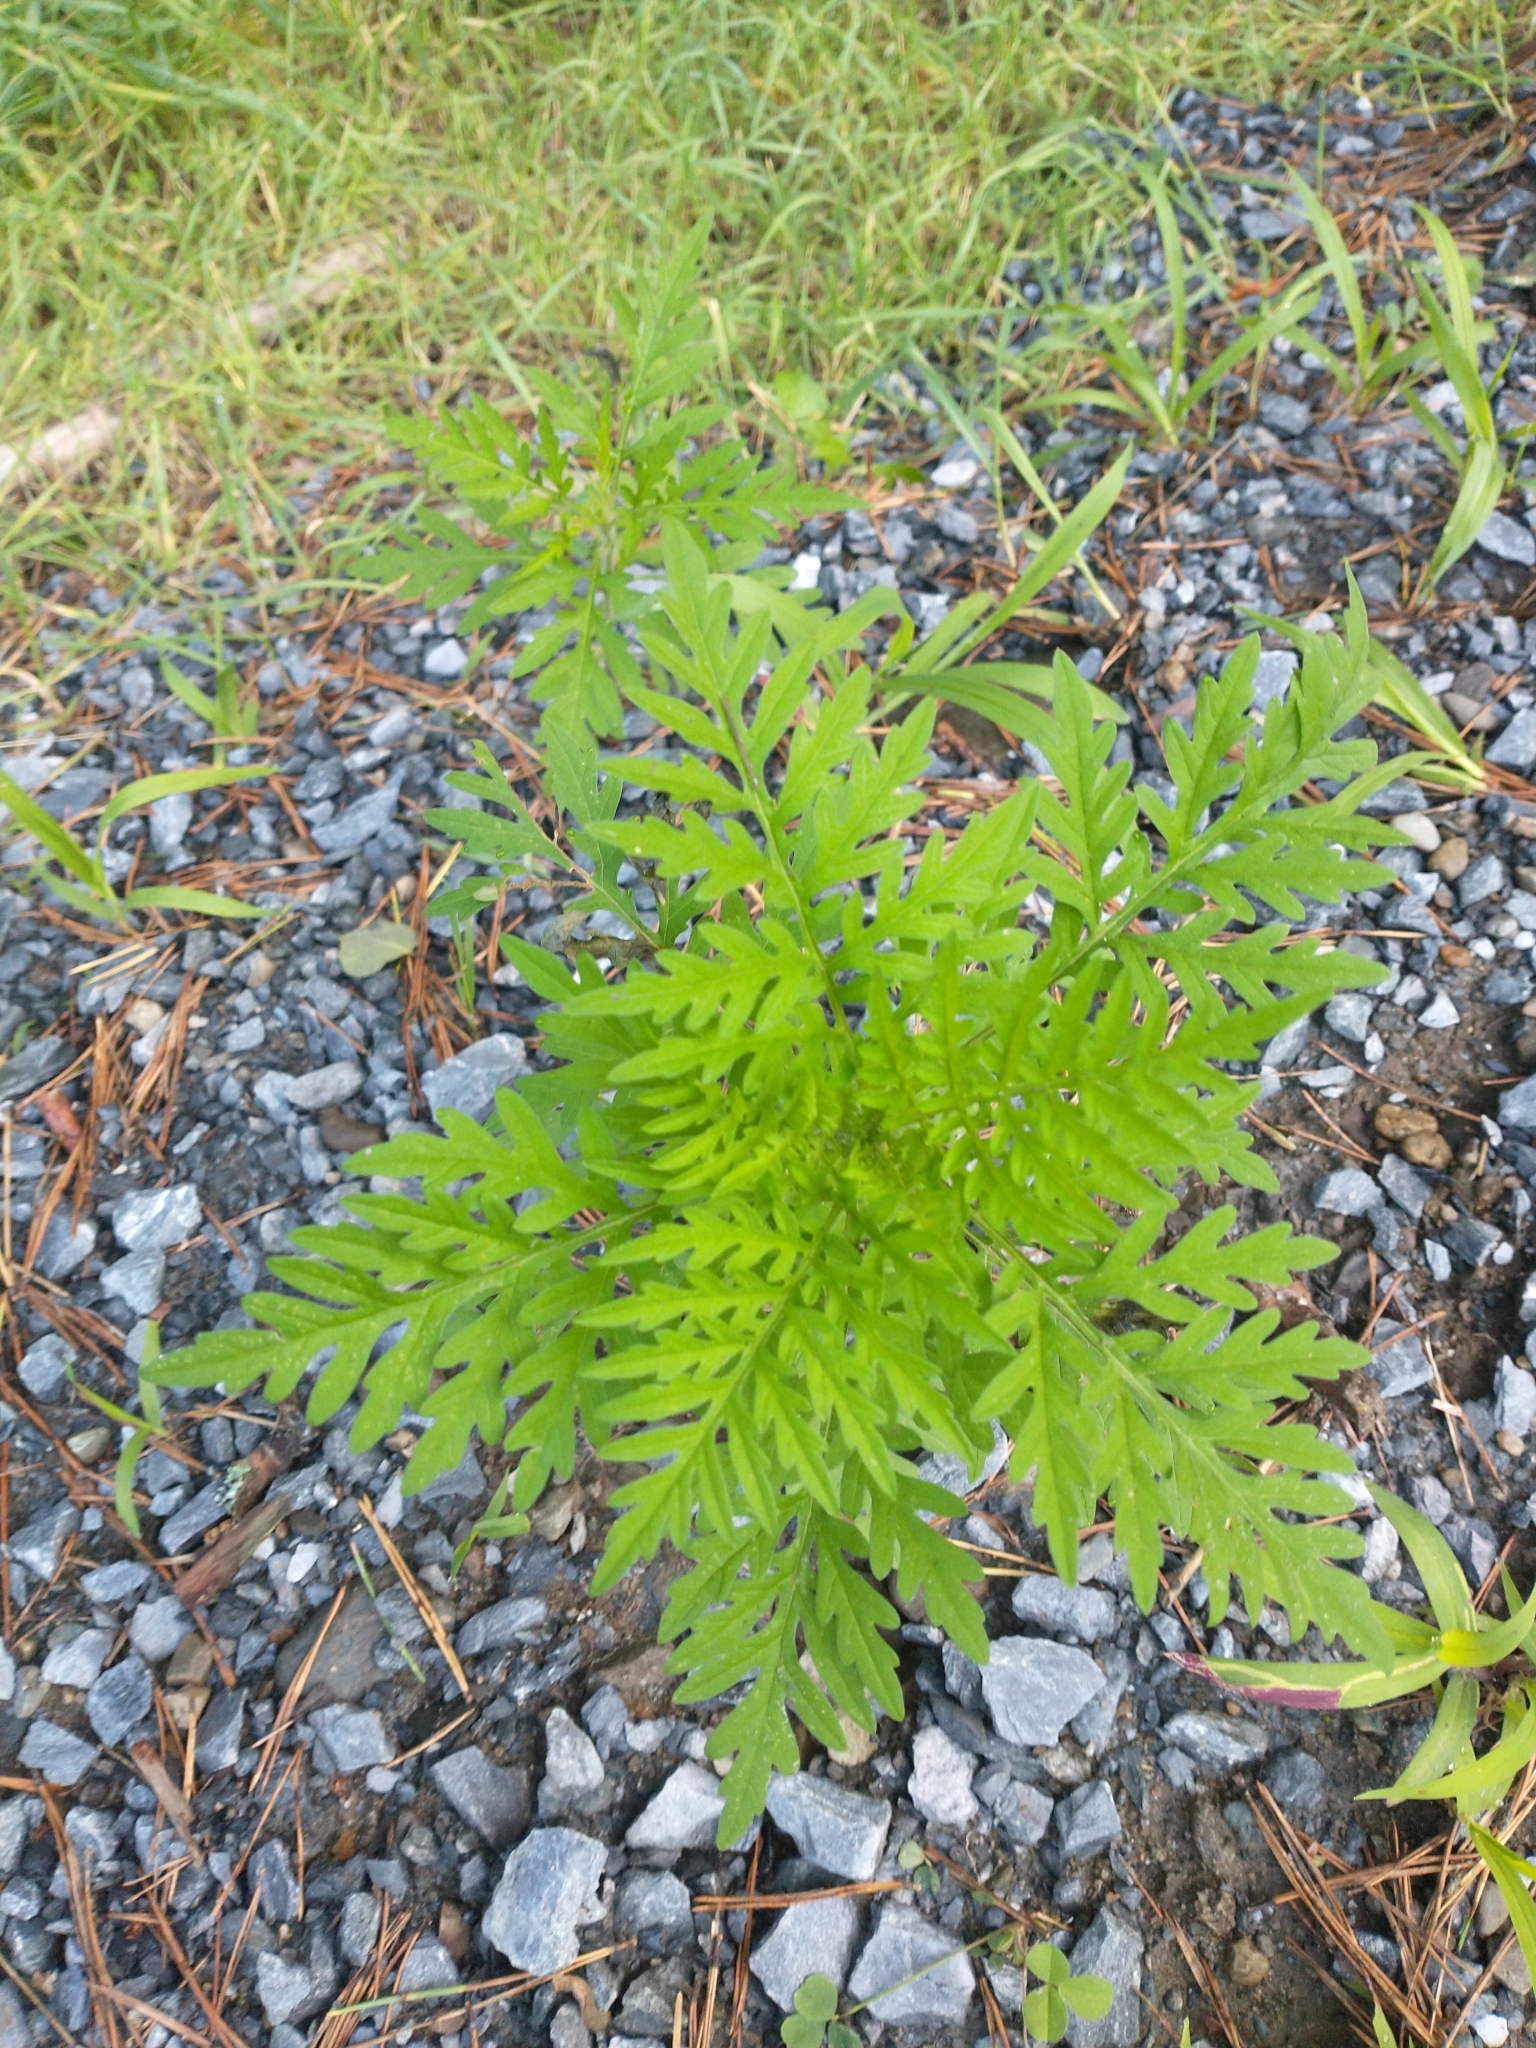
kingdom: Plantae
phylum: Tracheophyta
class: Magnoliopsida
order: Asterales
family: Asteraceae
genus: Ambrosia
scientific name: Ambrosia artemisiifolia
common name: Annual ragweed
